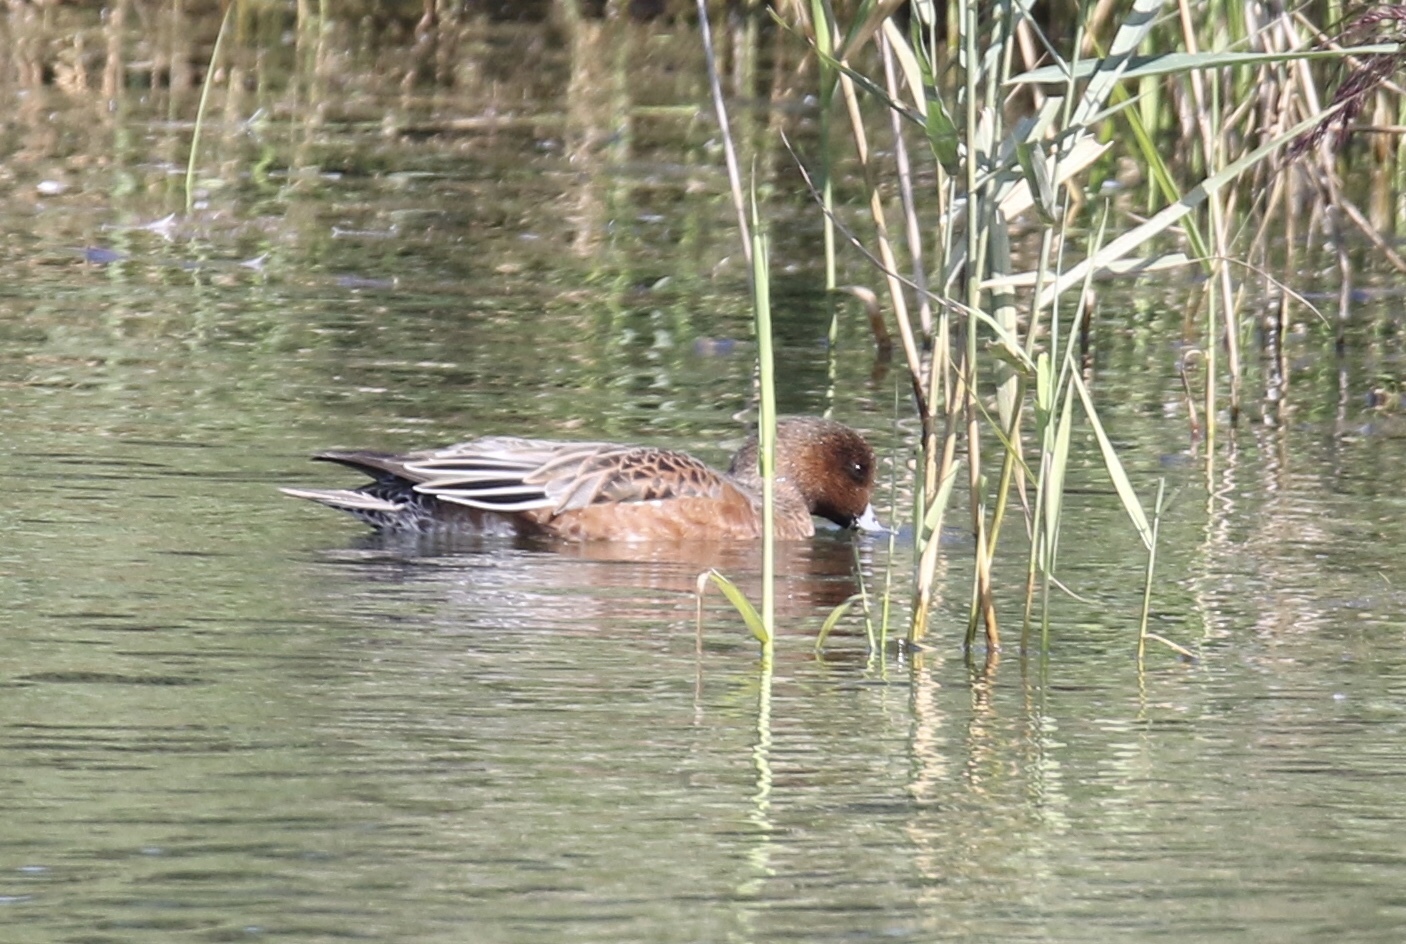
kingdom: Animalia
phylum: Chordata
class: Aves
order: Anseriformes
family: Anatidae
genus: Mareca
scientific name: Mareca penelope
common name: Eurasian wigeon
